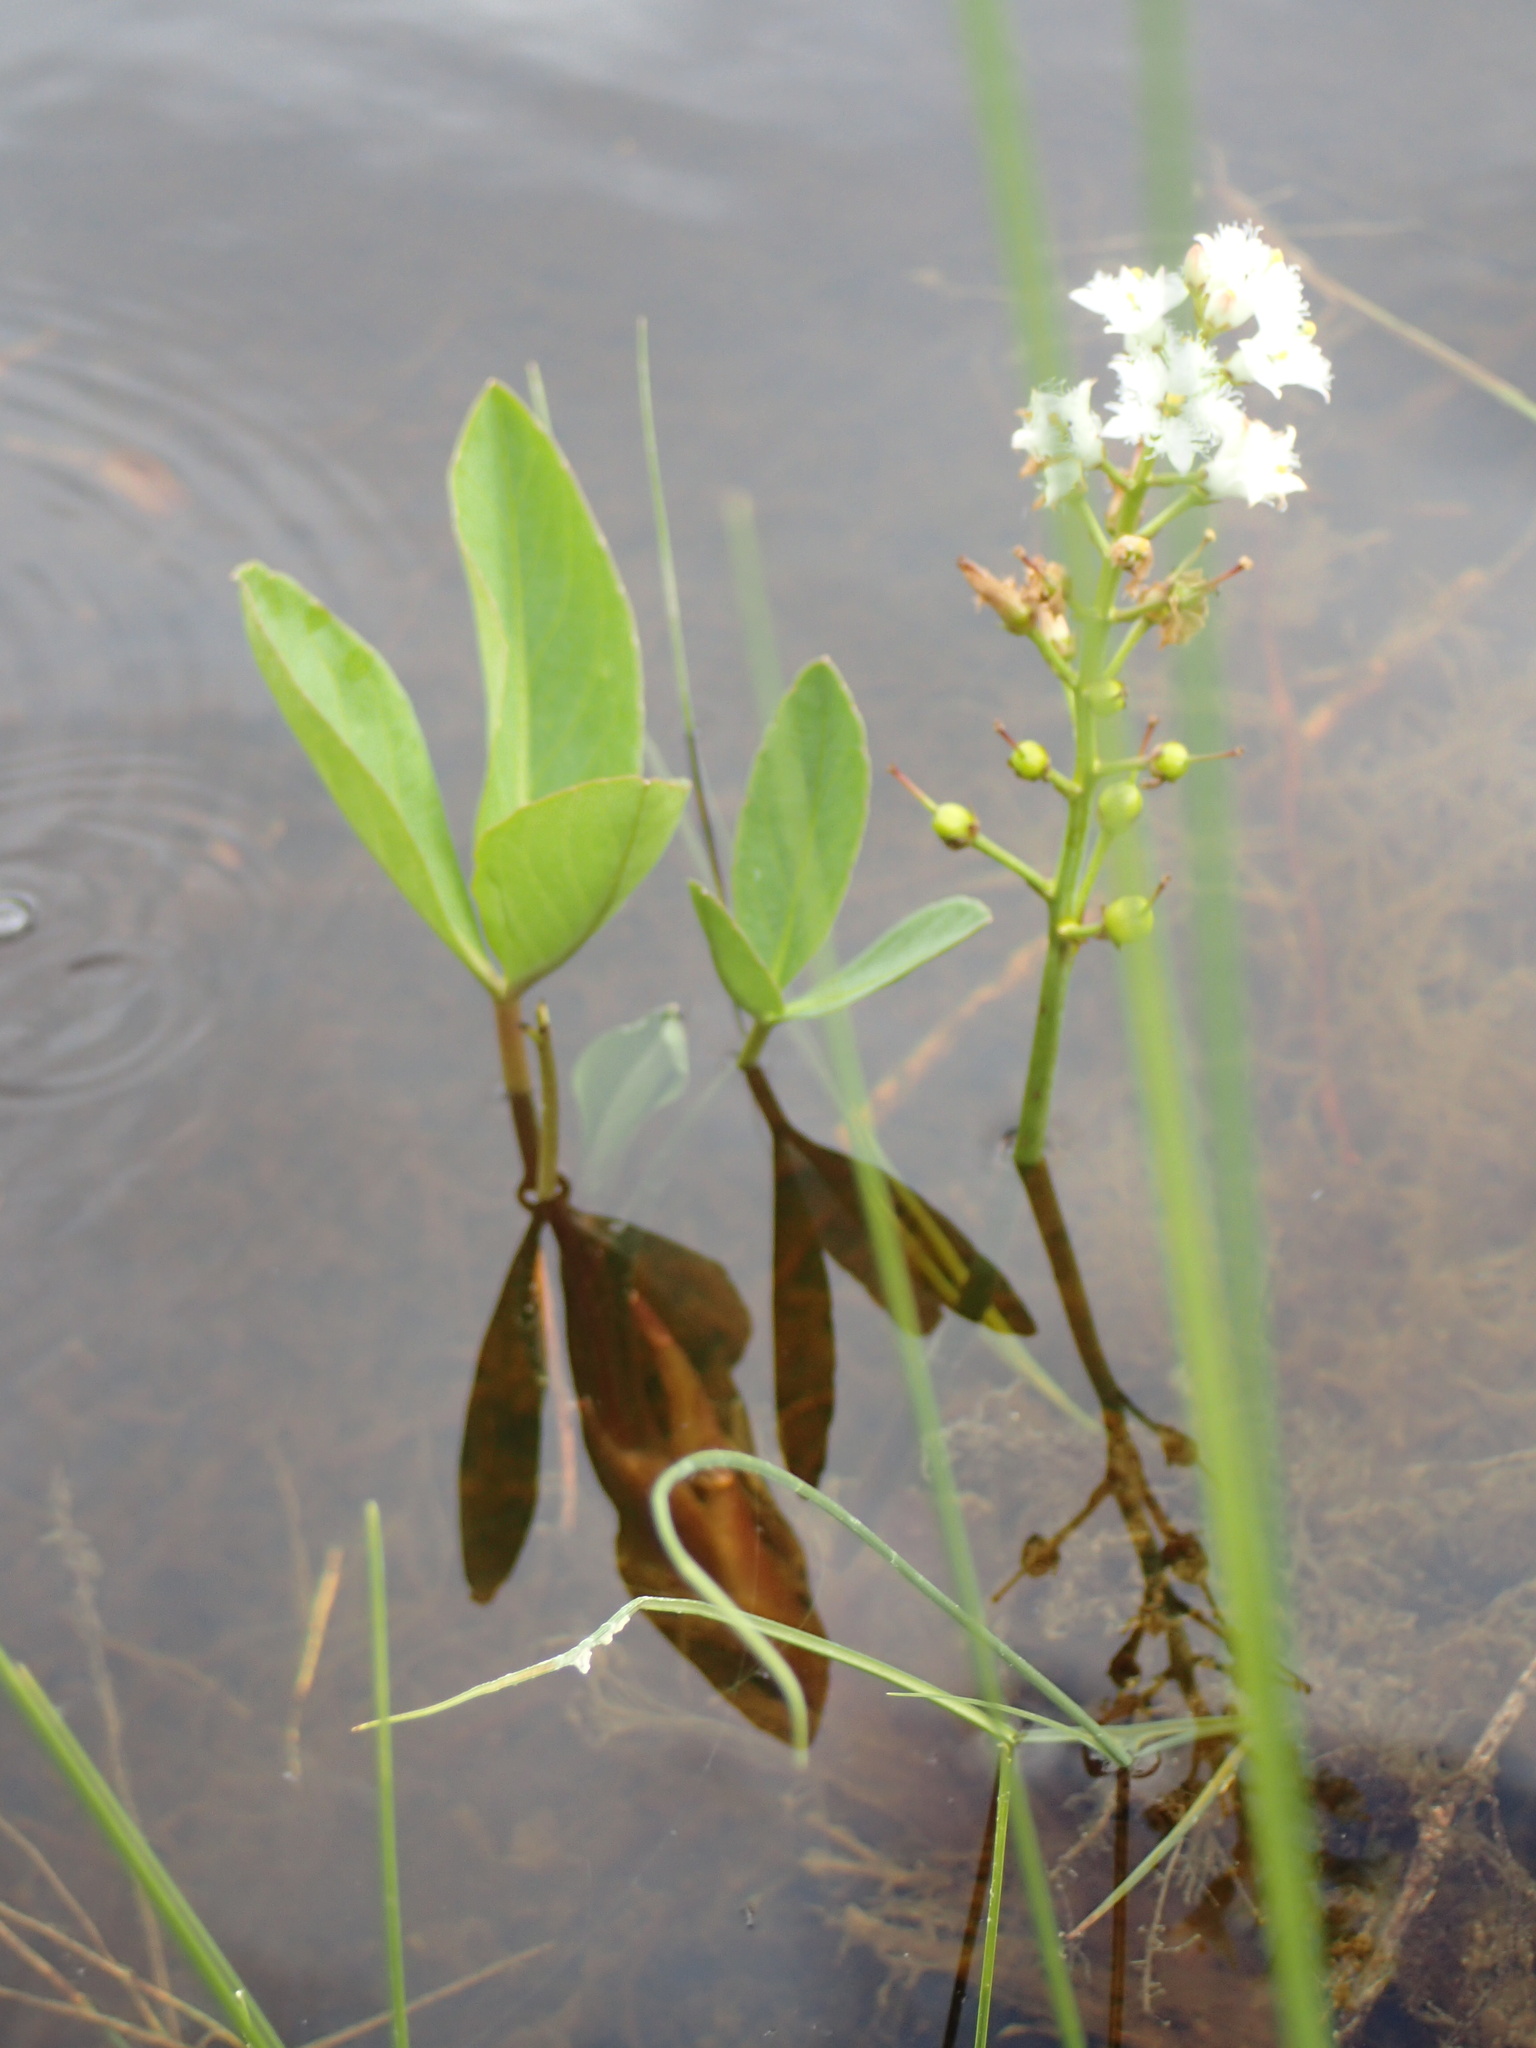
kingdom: Plantae
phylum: Tracheophyta
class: Magnoliopsida
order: Asterales
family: Menyanthaceae
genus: Menyanthes
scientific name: Menyanthes trifoliata
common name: Bogbean
